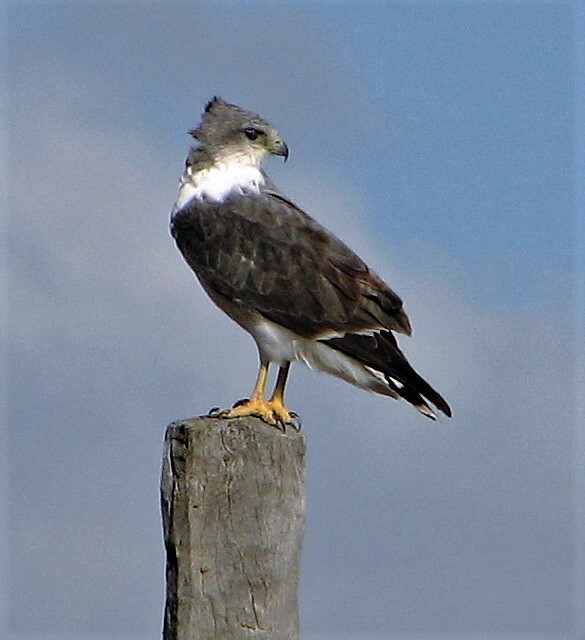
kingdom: Animalia
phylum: Chordata
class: Aves
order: Accipitriformes
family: Accipitridae
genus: Buteo
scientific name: Buteo polyosoma
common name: Variable hawk
